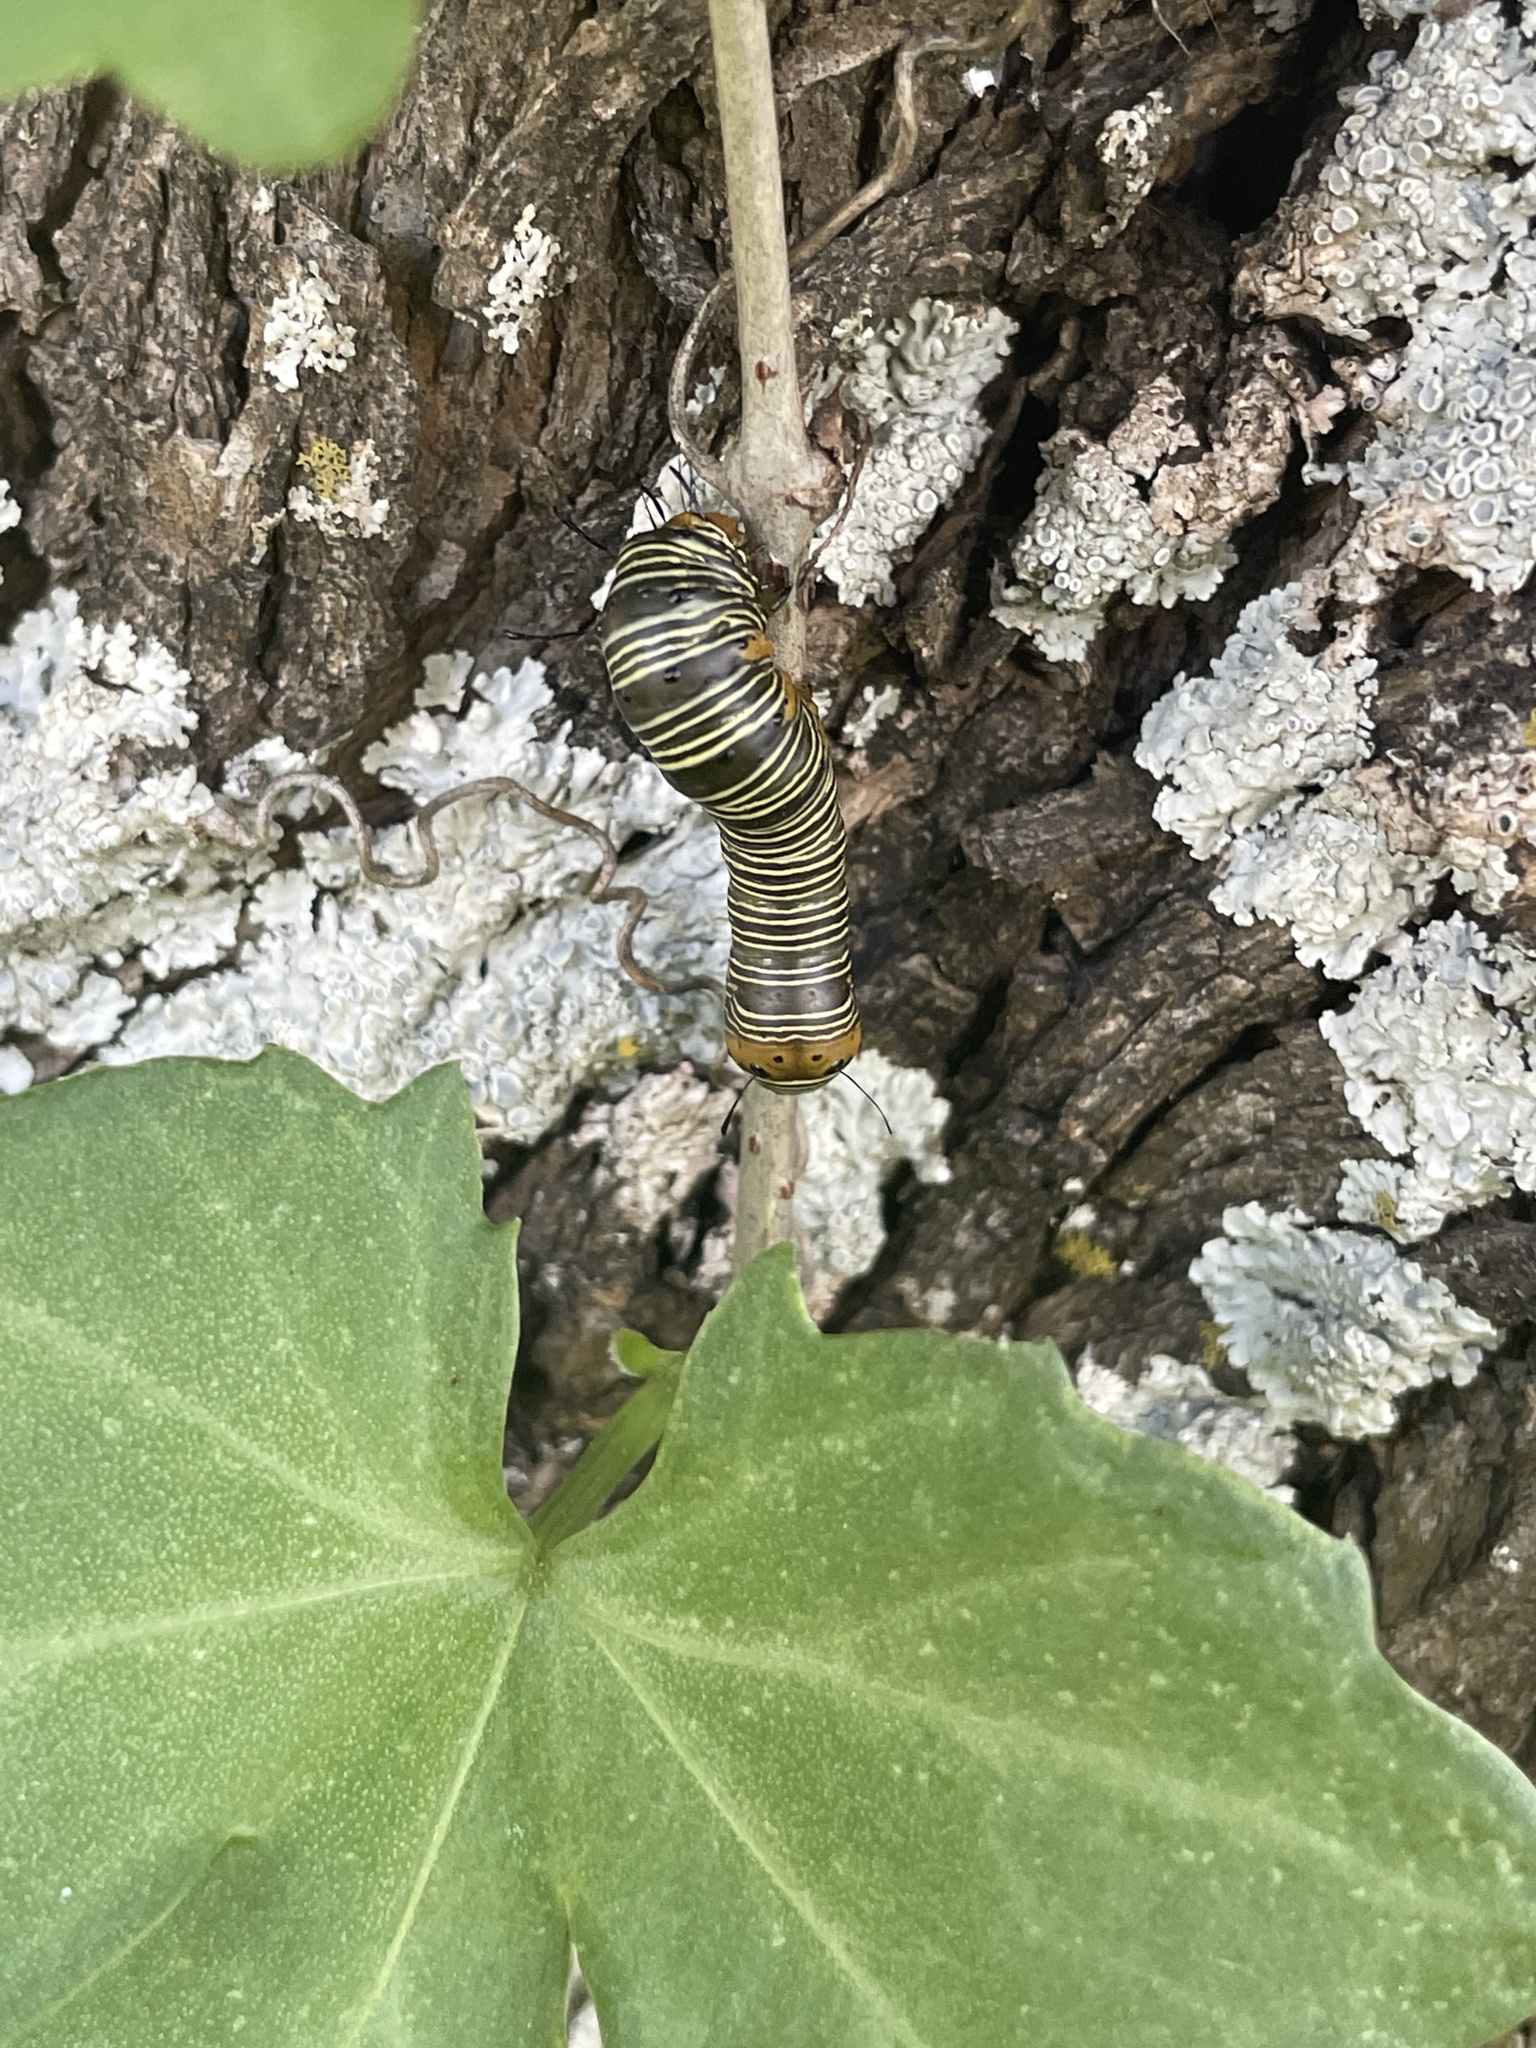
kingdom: Animalia
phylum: Arthropoda
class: Insecta
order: Lepidoptera
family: Noctuidae
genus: Xerociris
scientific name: Xerociris wilsonii
